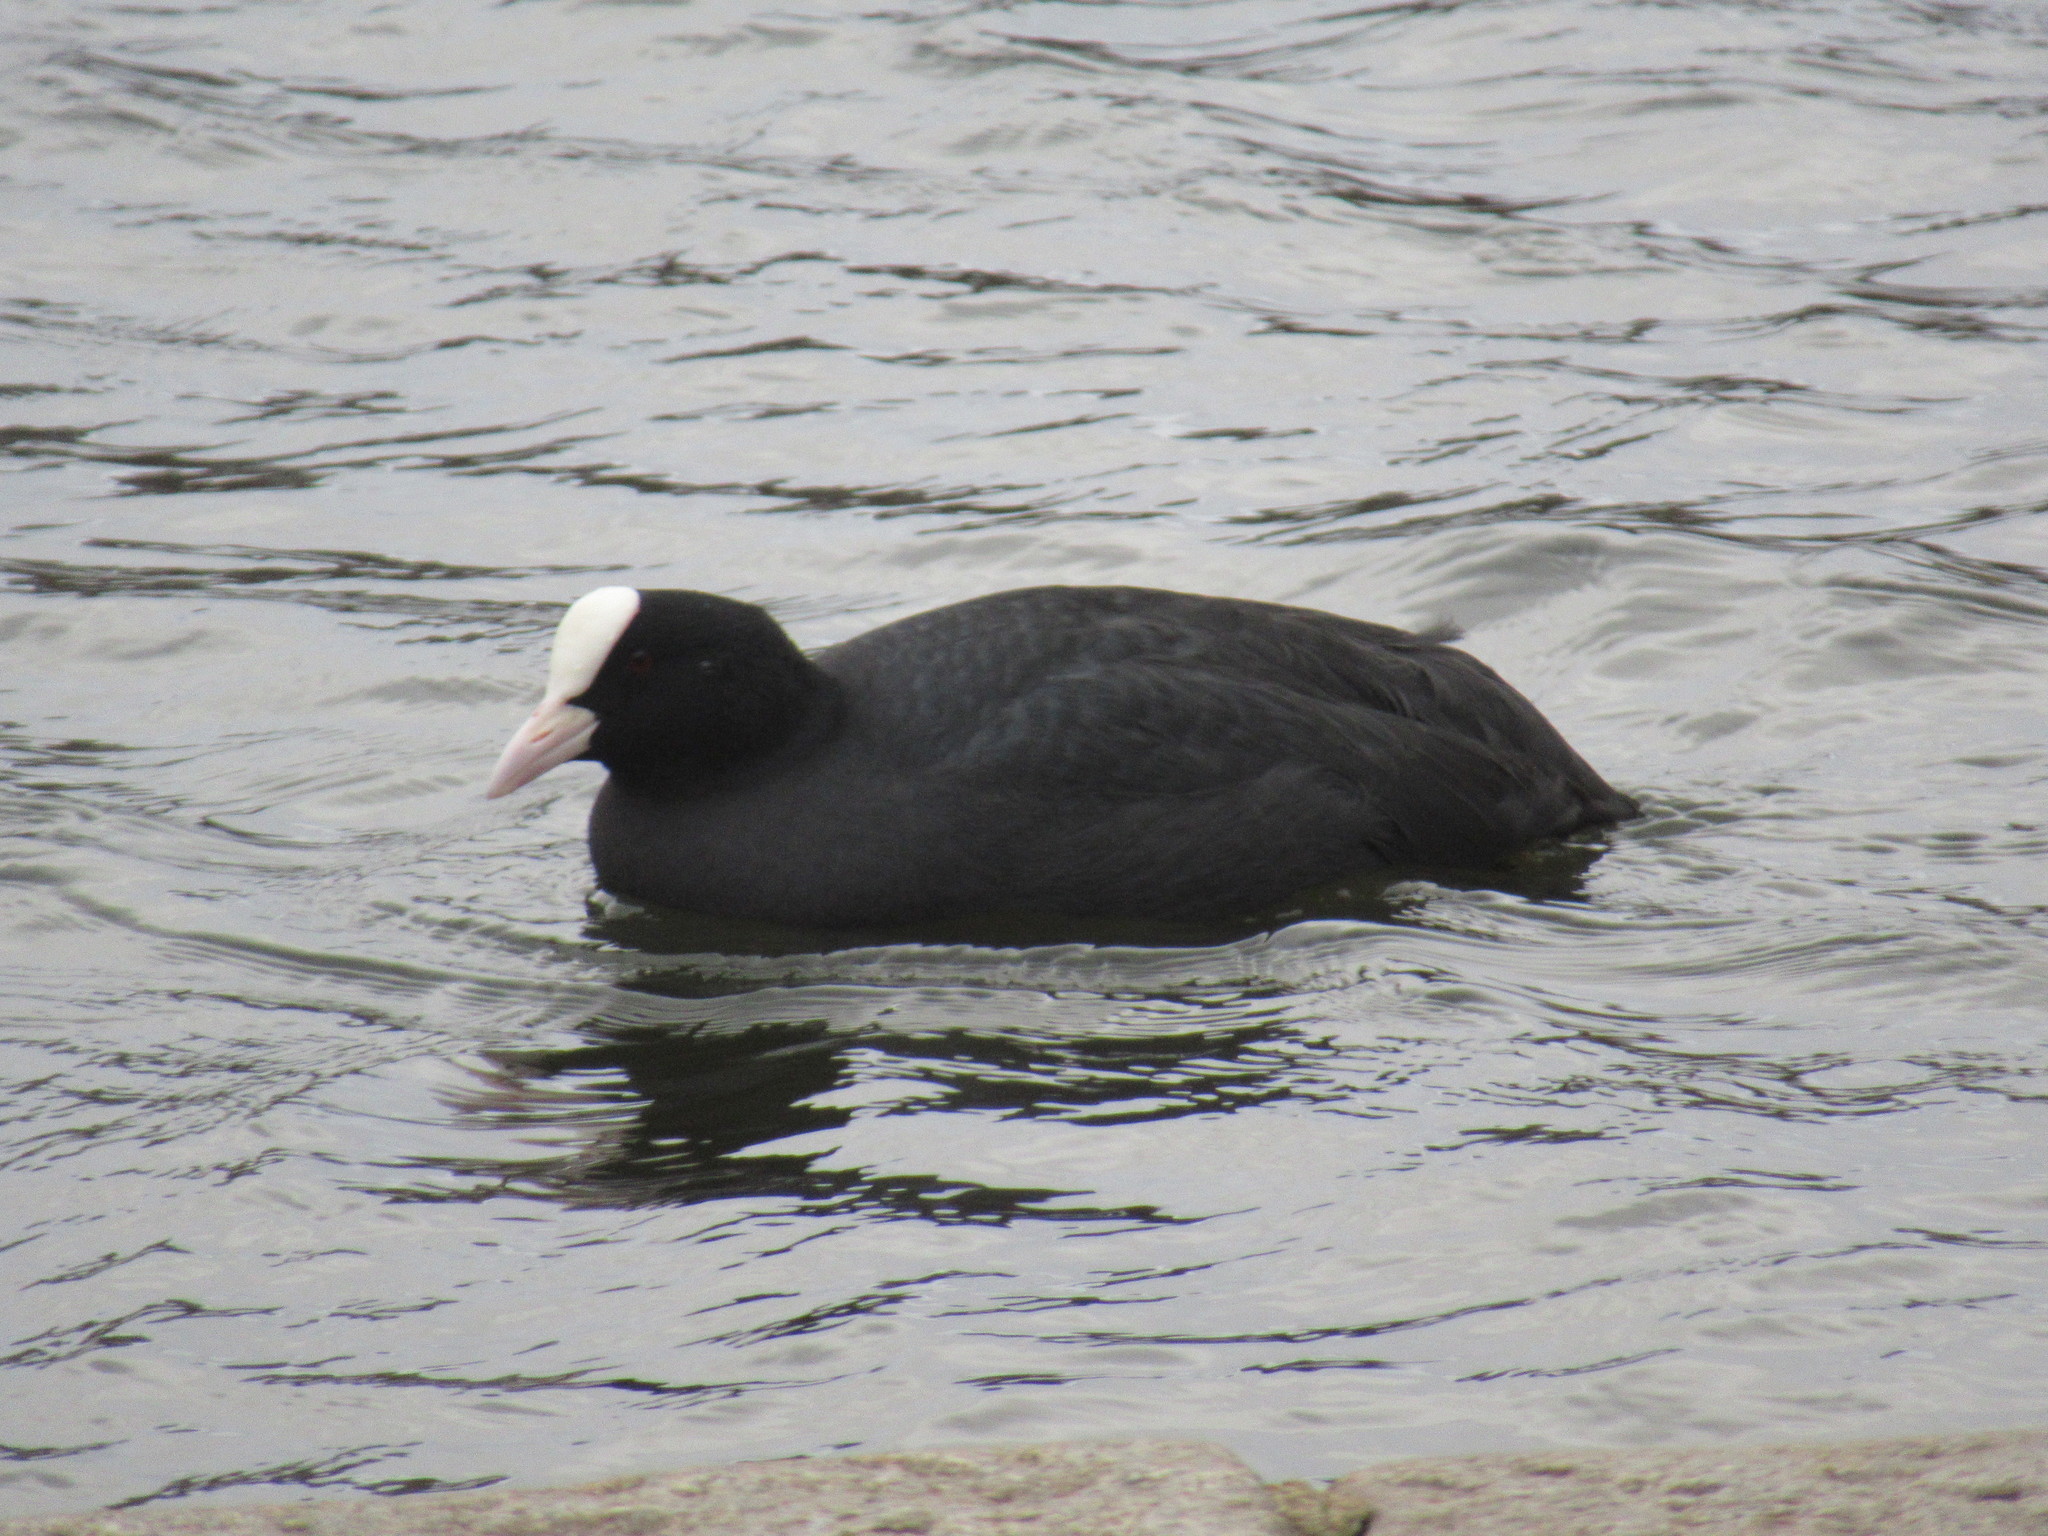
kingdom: Animalia
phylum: Chordata
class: Aves
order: Gruiformes
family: Rallidae
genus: Fulica
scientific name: Fulica atra
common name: Eurasian coot
